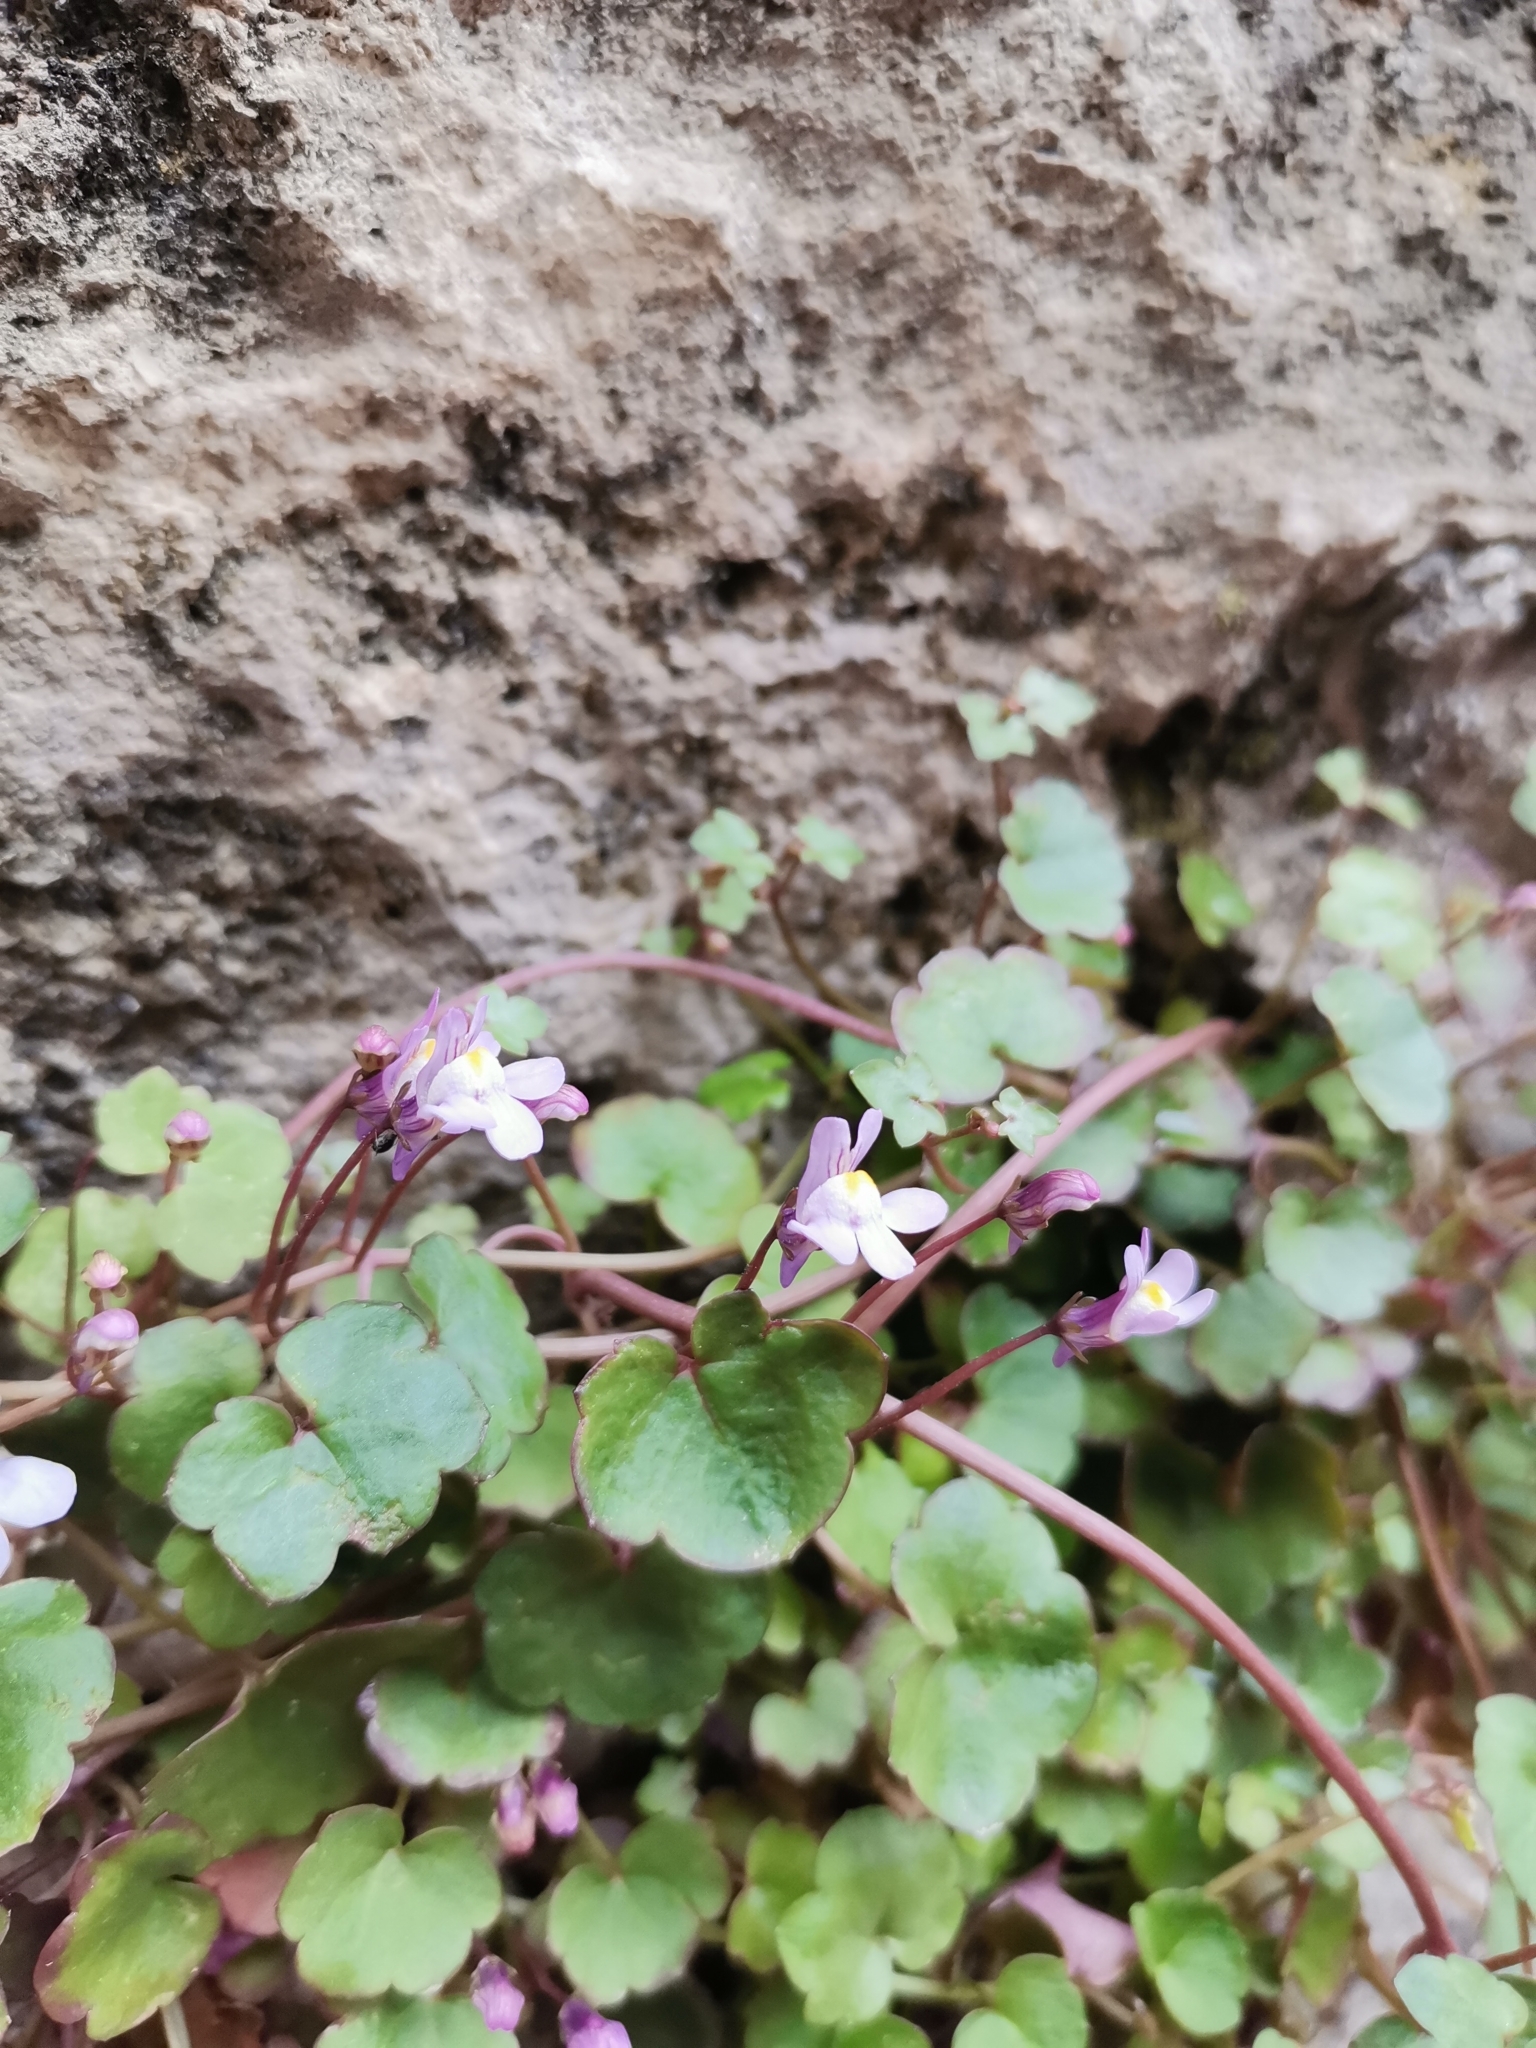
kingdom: Plantae
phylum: Tracheophyta
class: Magnoliopsida
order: Lamiales
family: Plantaginaceae
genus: Cymbalaria
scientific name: Cymbalaria muralis
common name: Ivy-leaved toadflax
